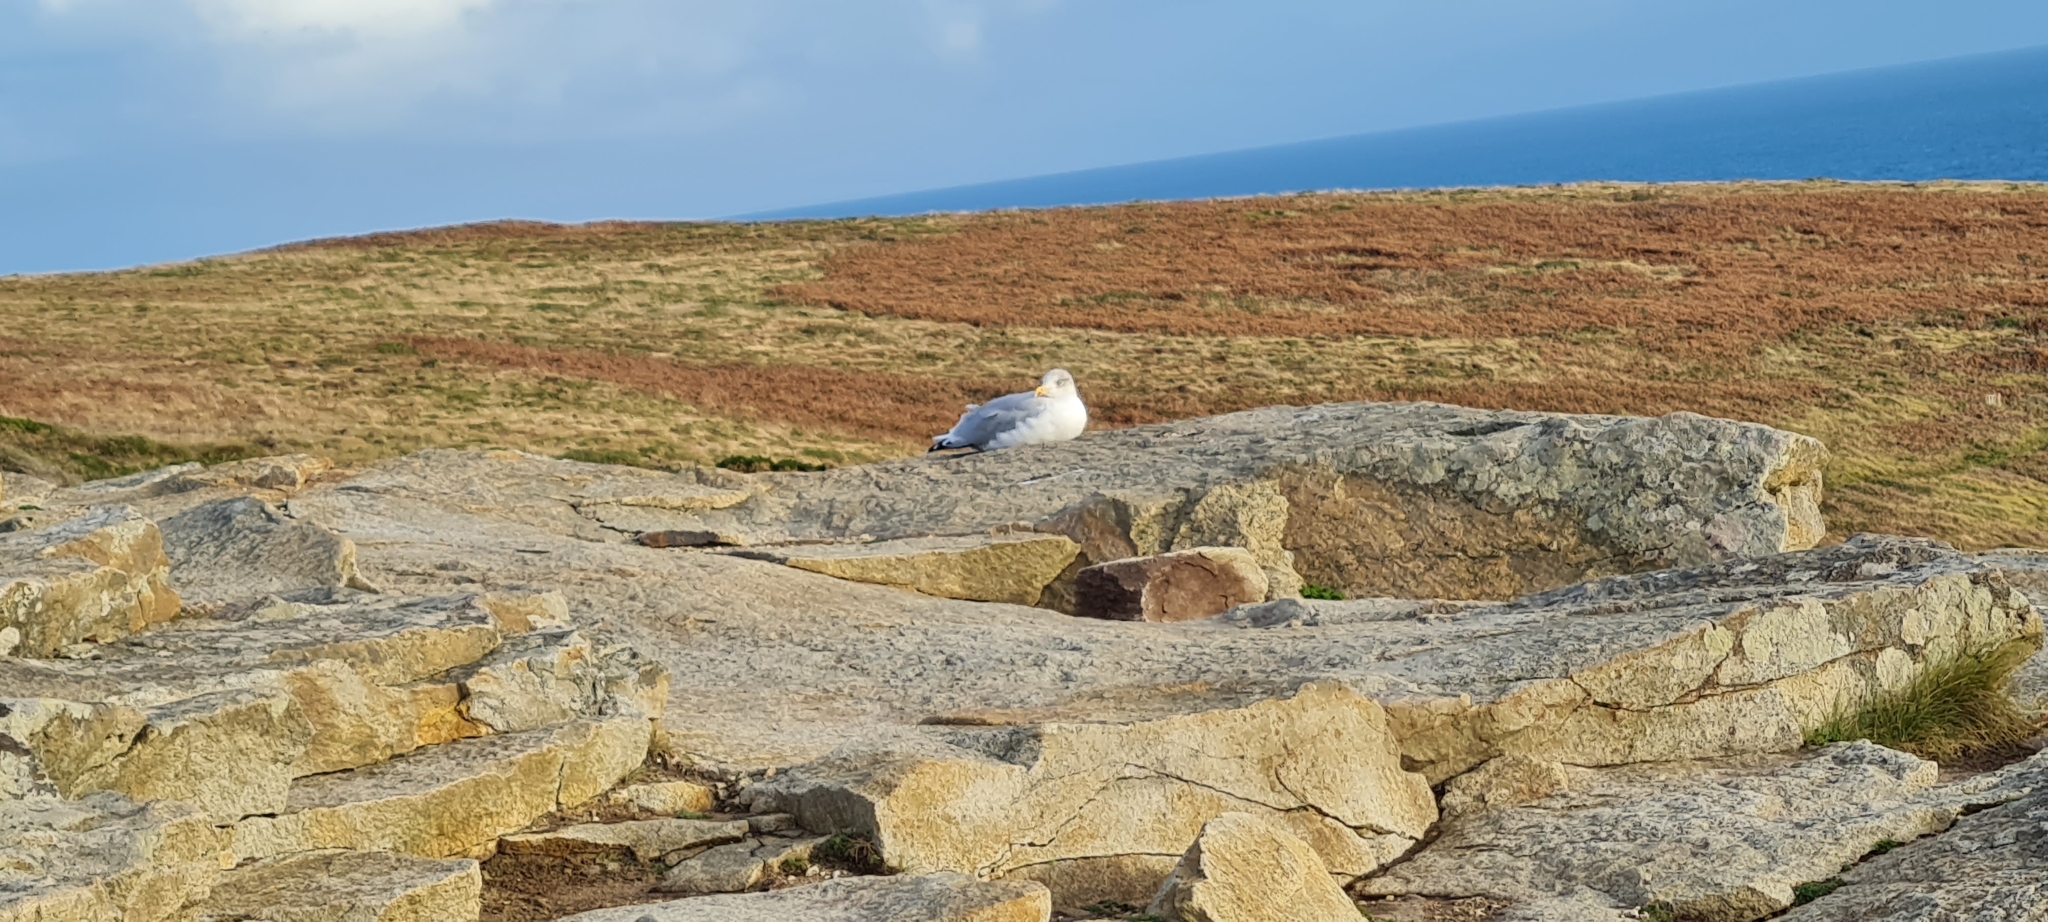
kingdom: Animalia
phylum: Chordata
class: Aves
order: Charadriiformes
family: Laridae
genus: Larus
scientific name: Larus argentatus
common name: Herring gull
